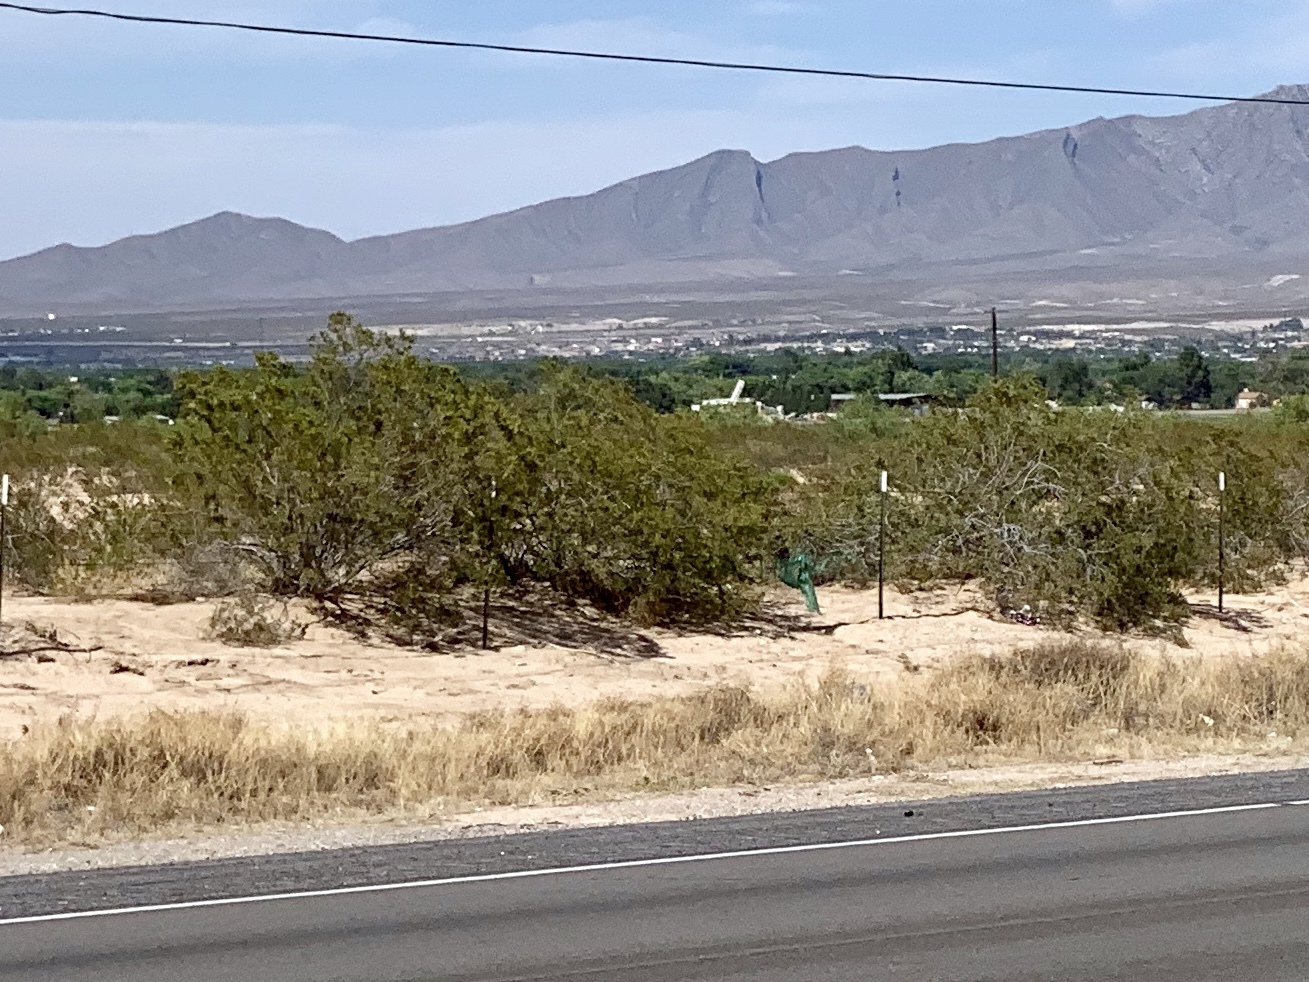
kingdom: Plantae
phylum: Tracheophyta
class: Magnoliopsida
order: Zygophyllales
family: Zygophyllaceae
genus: Larrea
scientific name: Larrea tridentata
